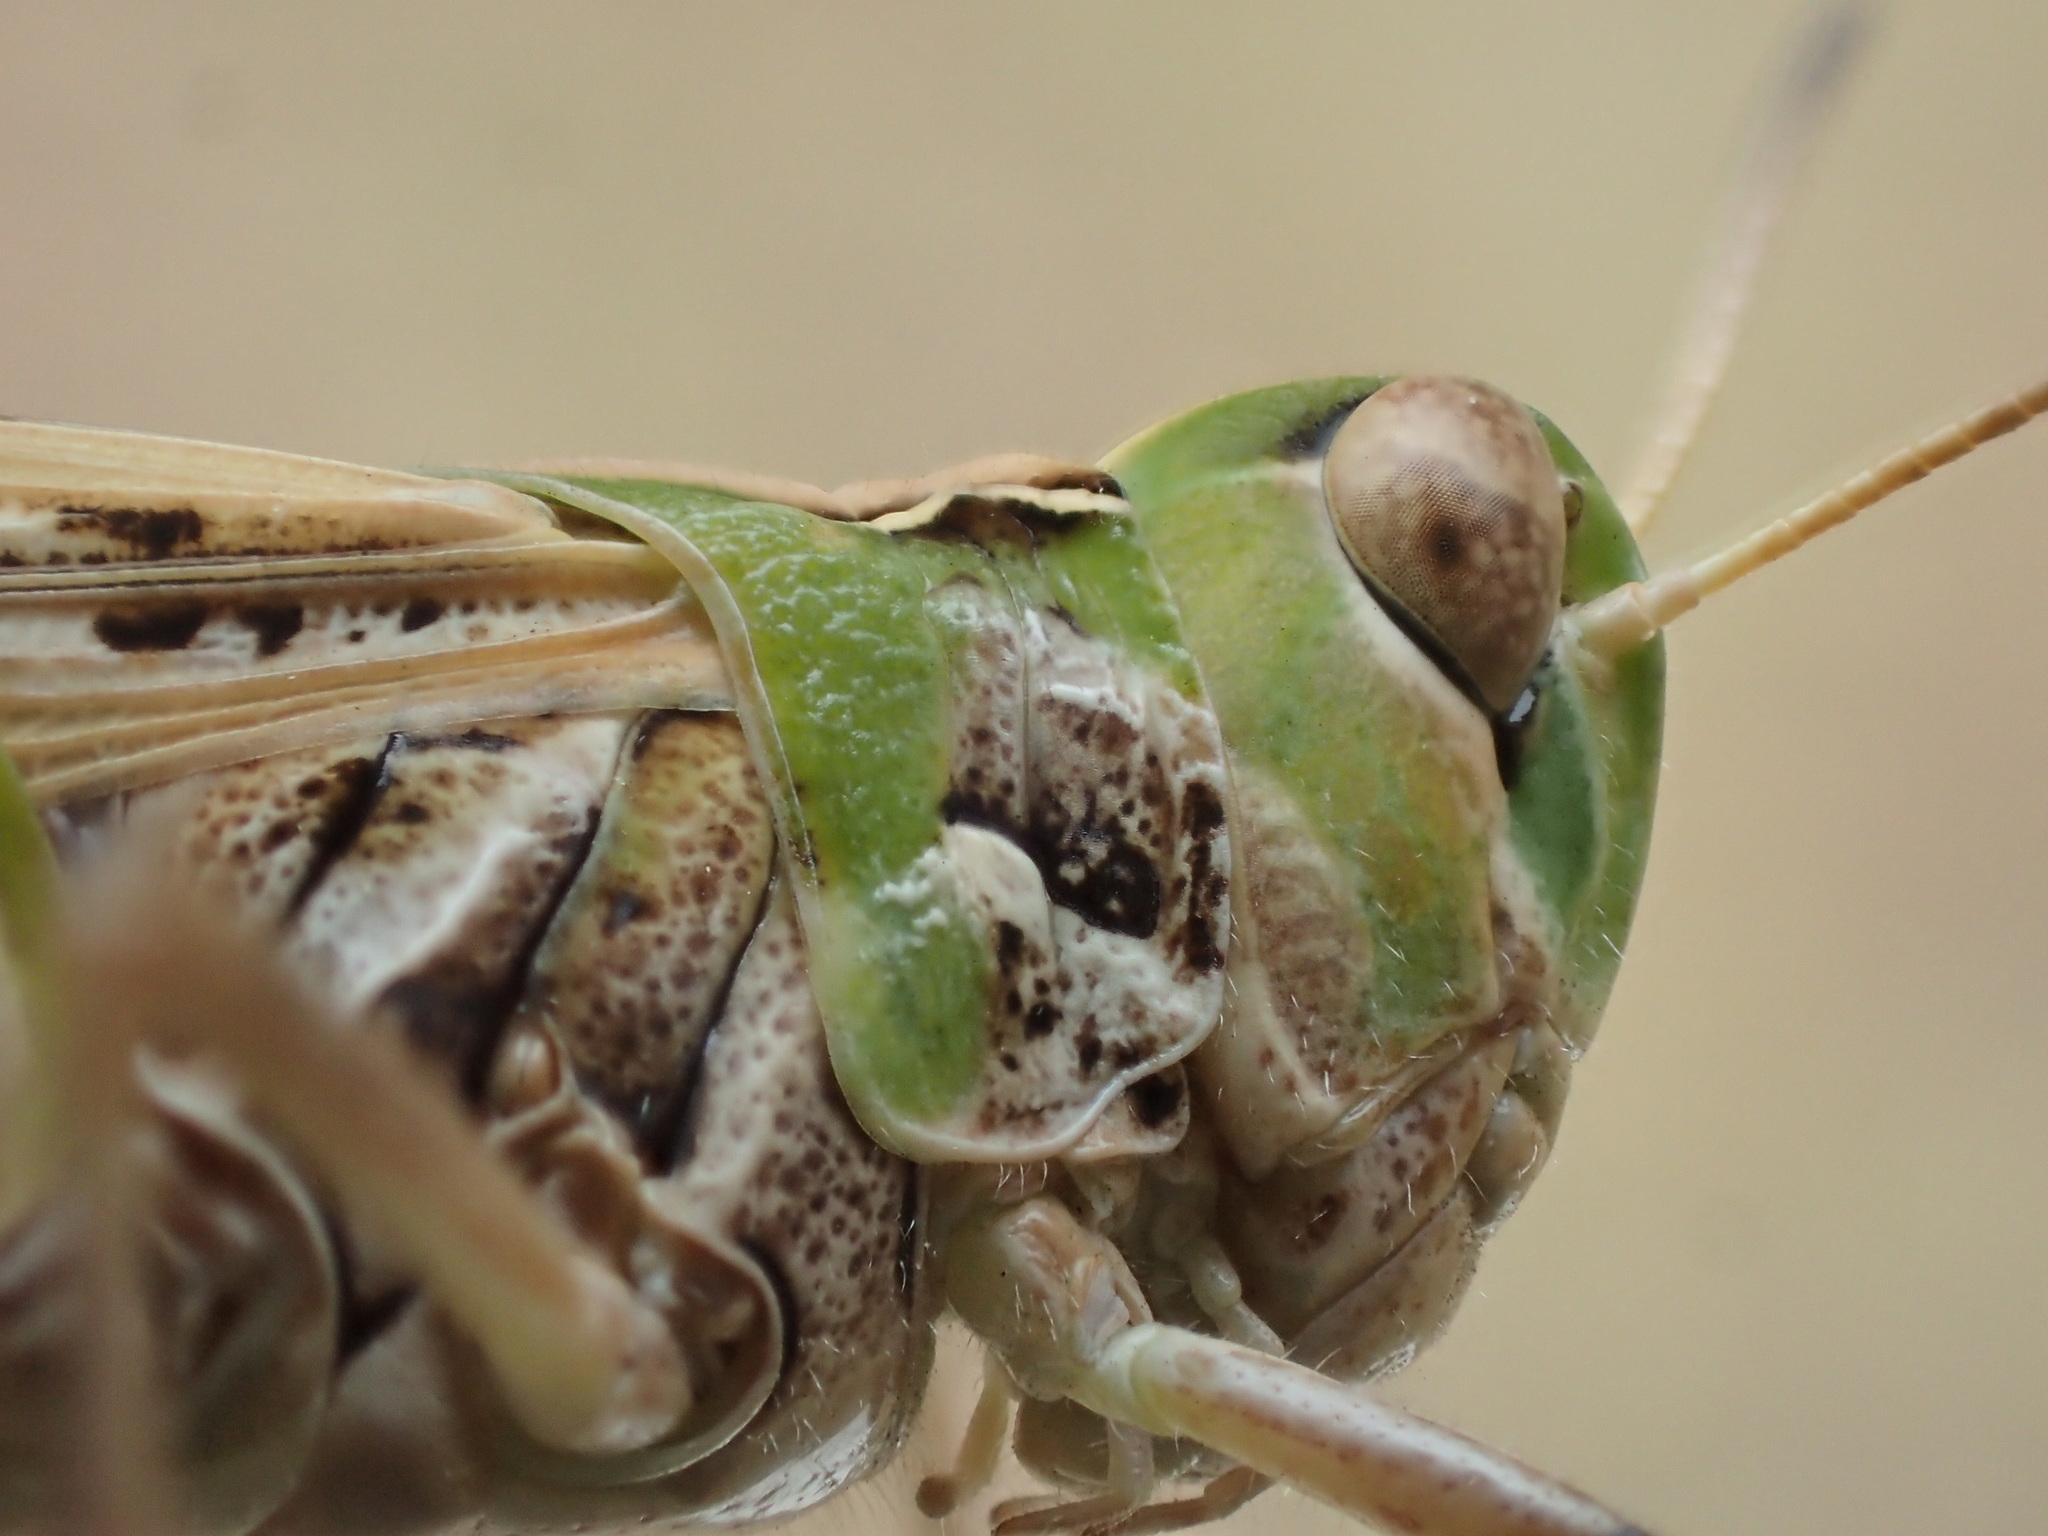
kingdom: Animalia
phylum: Arthropoda
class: Insecta
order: Orthoptera
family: Acrididae
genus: Austroicetes
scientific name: Austroicetes vulgaris
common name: Southeastern austroicetes
